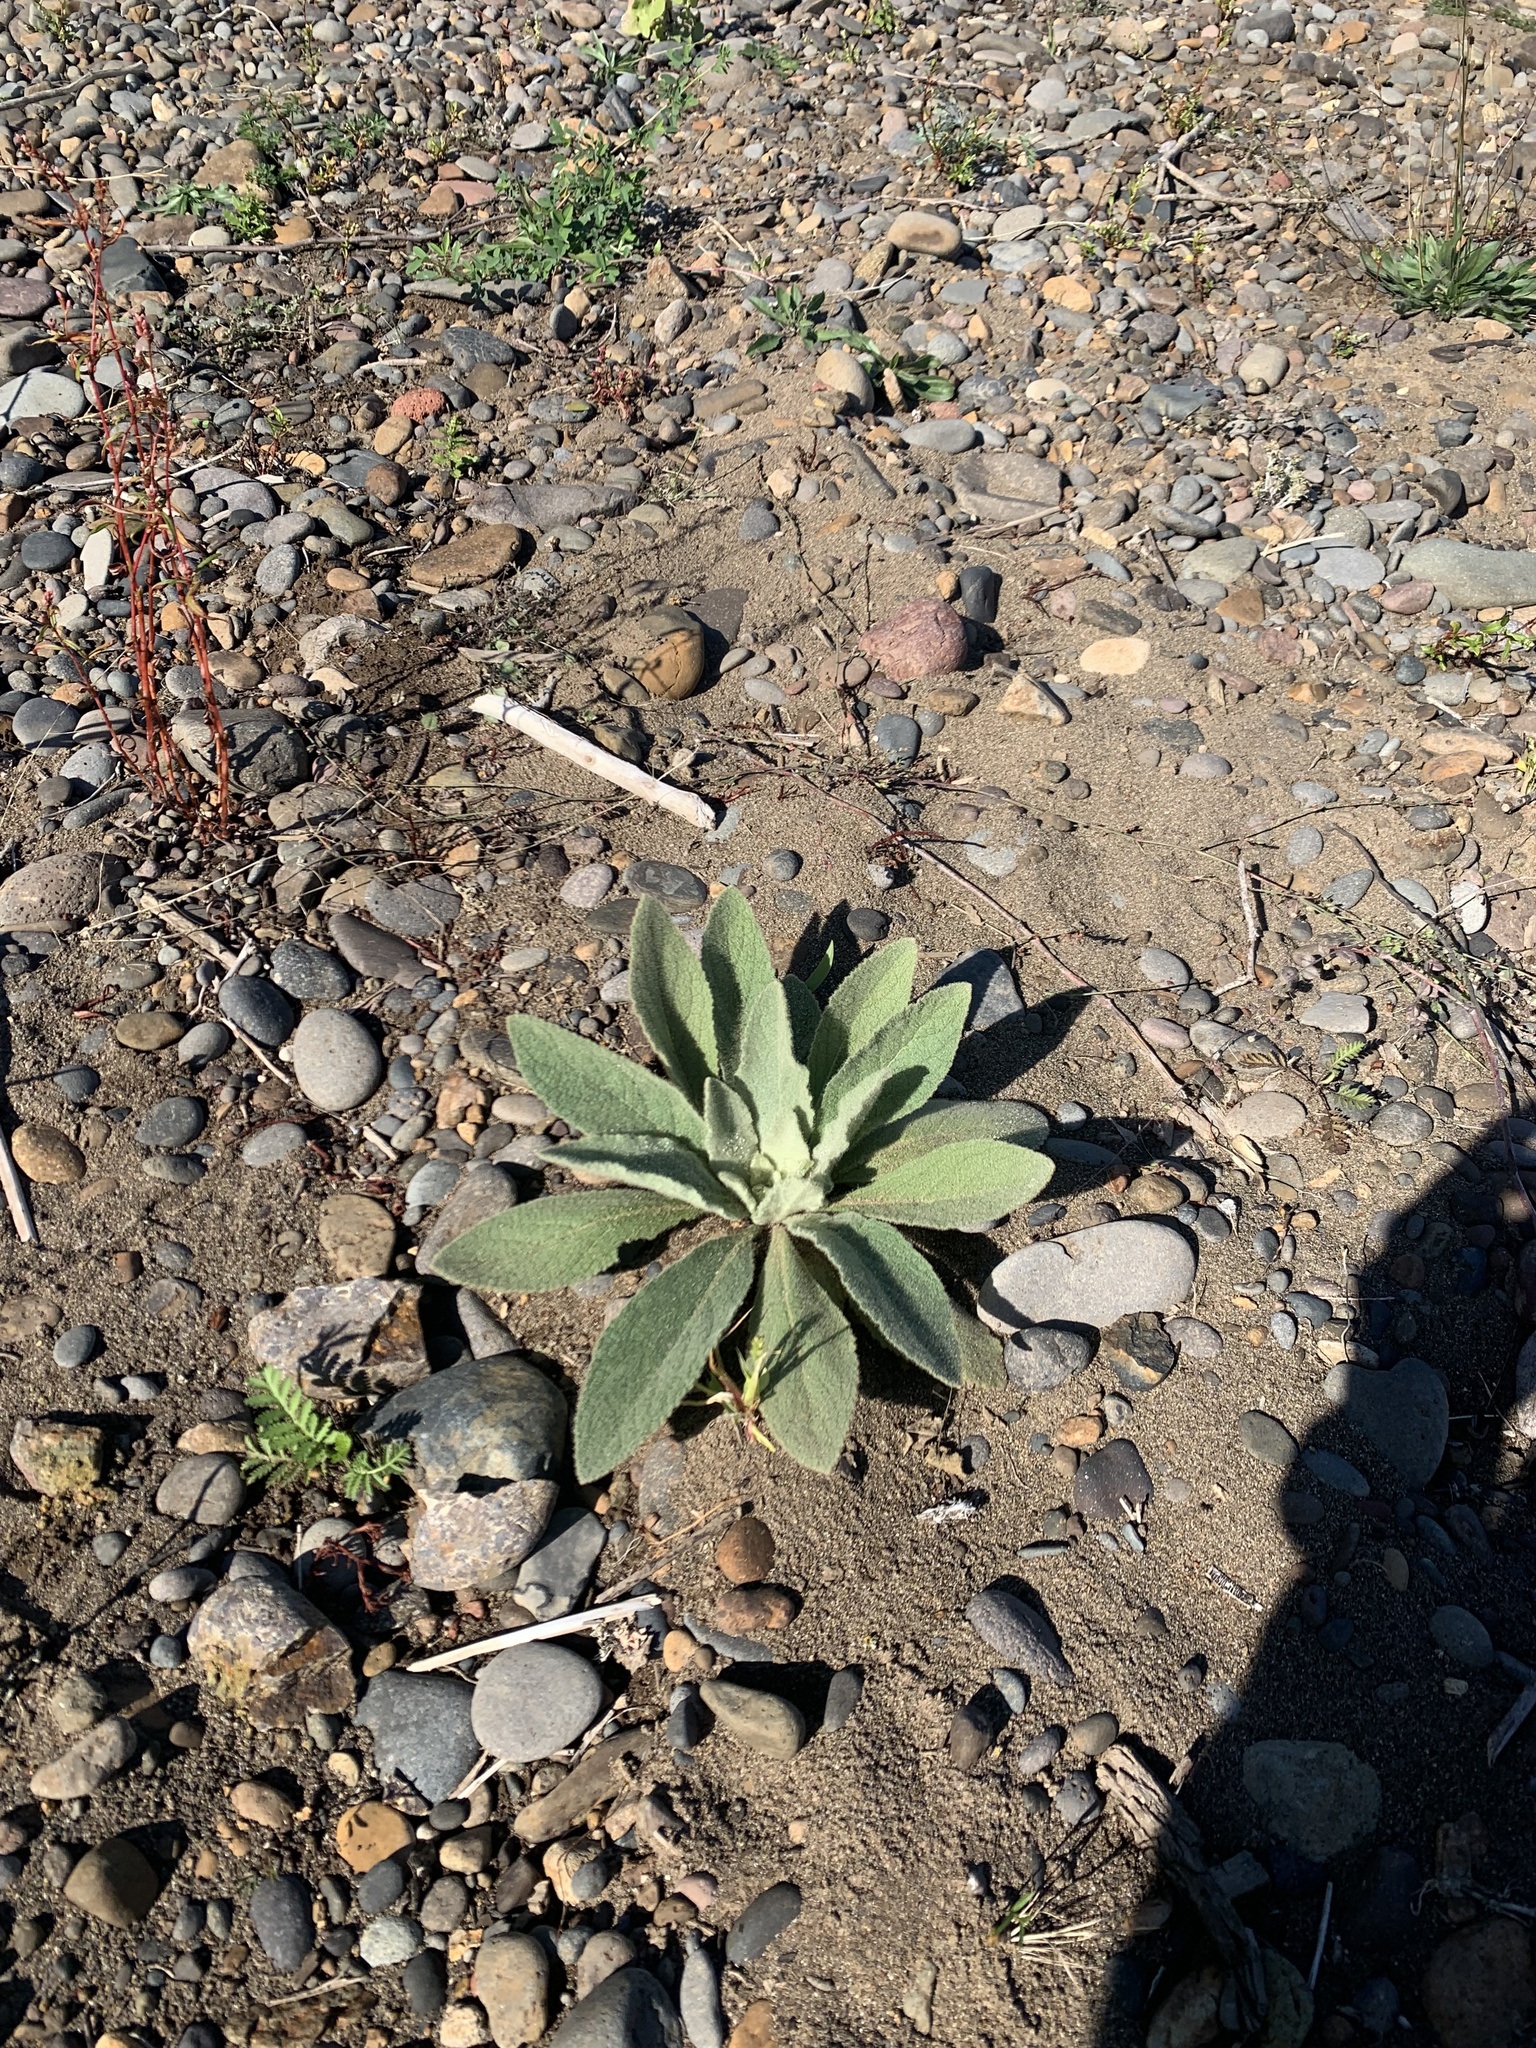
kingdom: Plantae
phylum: Tracheophyta
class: Magnoliopsida
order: Lamiales
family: Scrophulariaceae
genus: Verbascum
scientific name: Verbascum thapsus
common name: Common mullein
